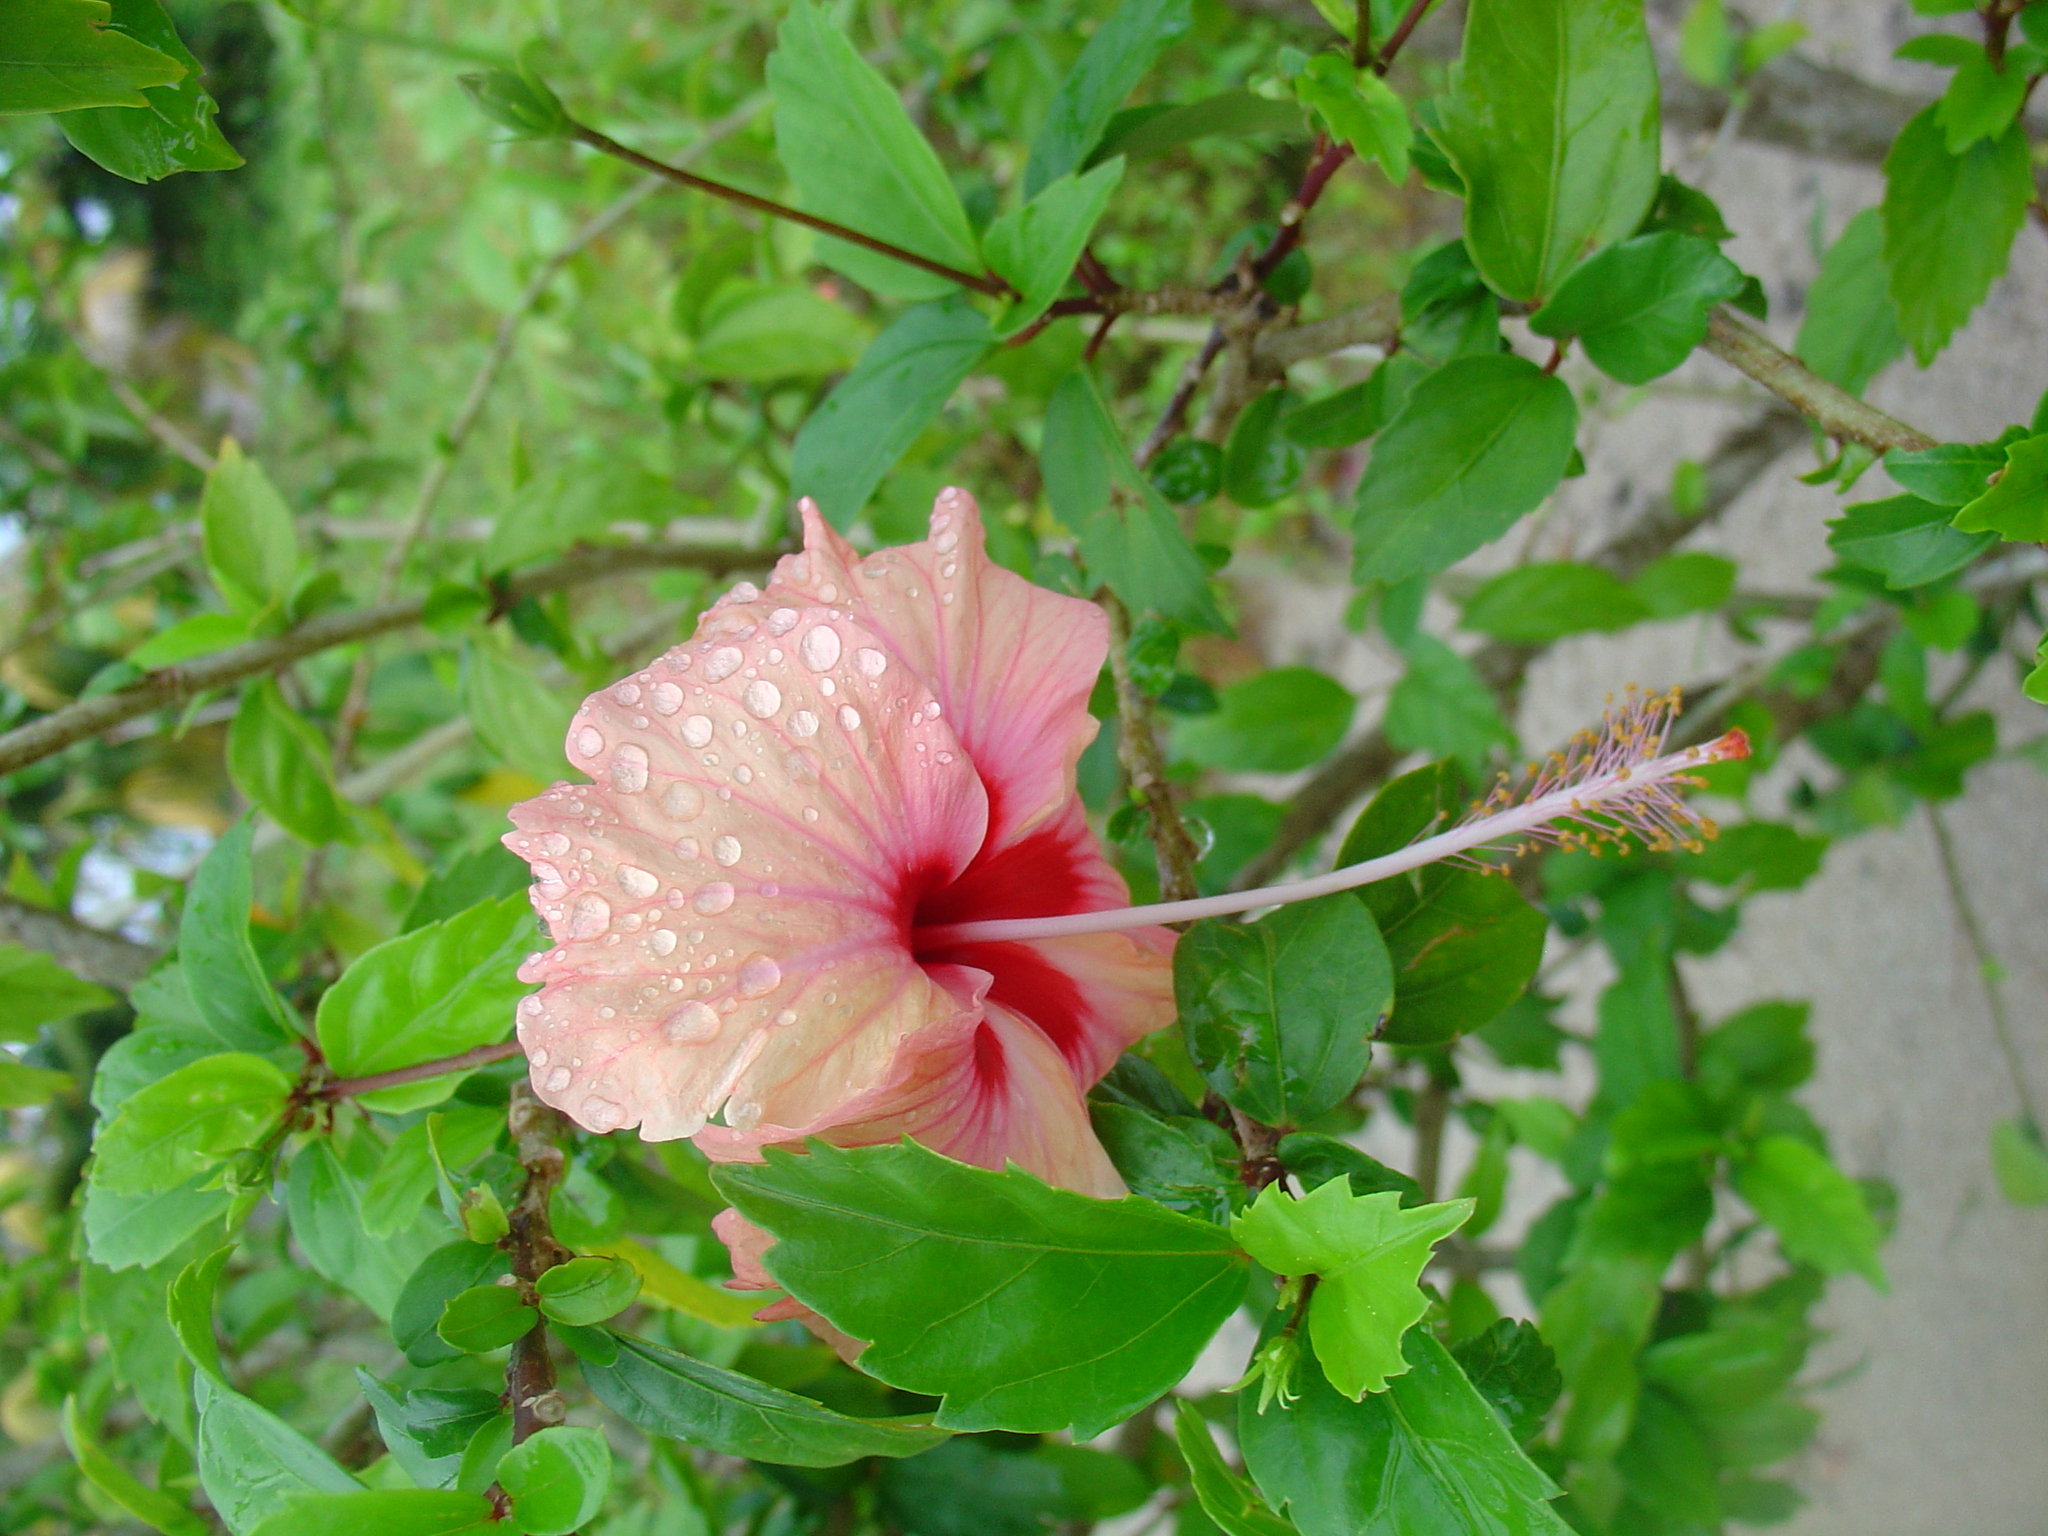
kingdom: Plantae
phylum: Tracheophyta
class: Magnoliopsida
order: Malvales
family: Malvaceae
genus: Hibiscus
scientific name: Hibiscus archeri
